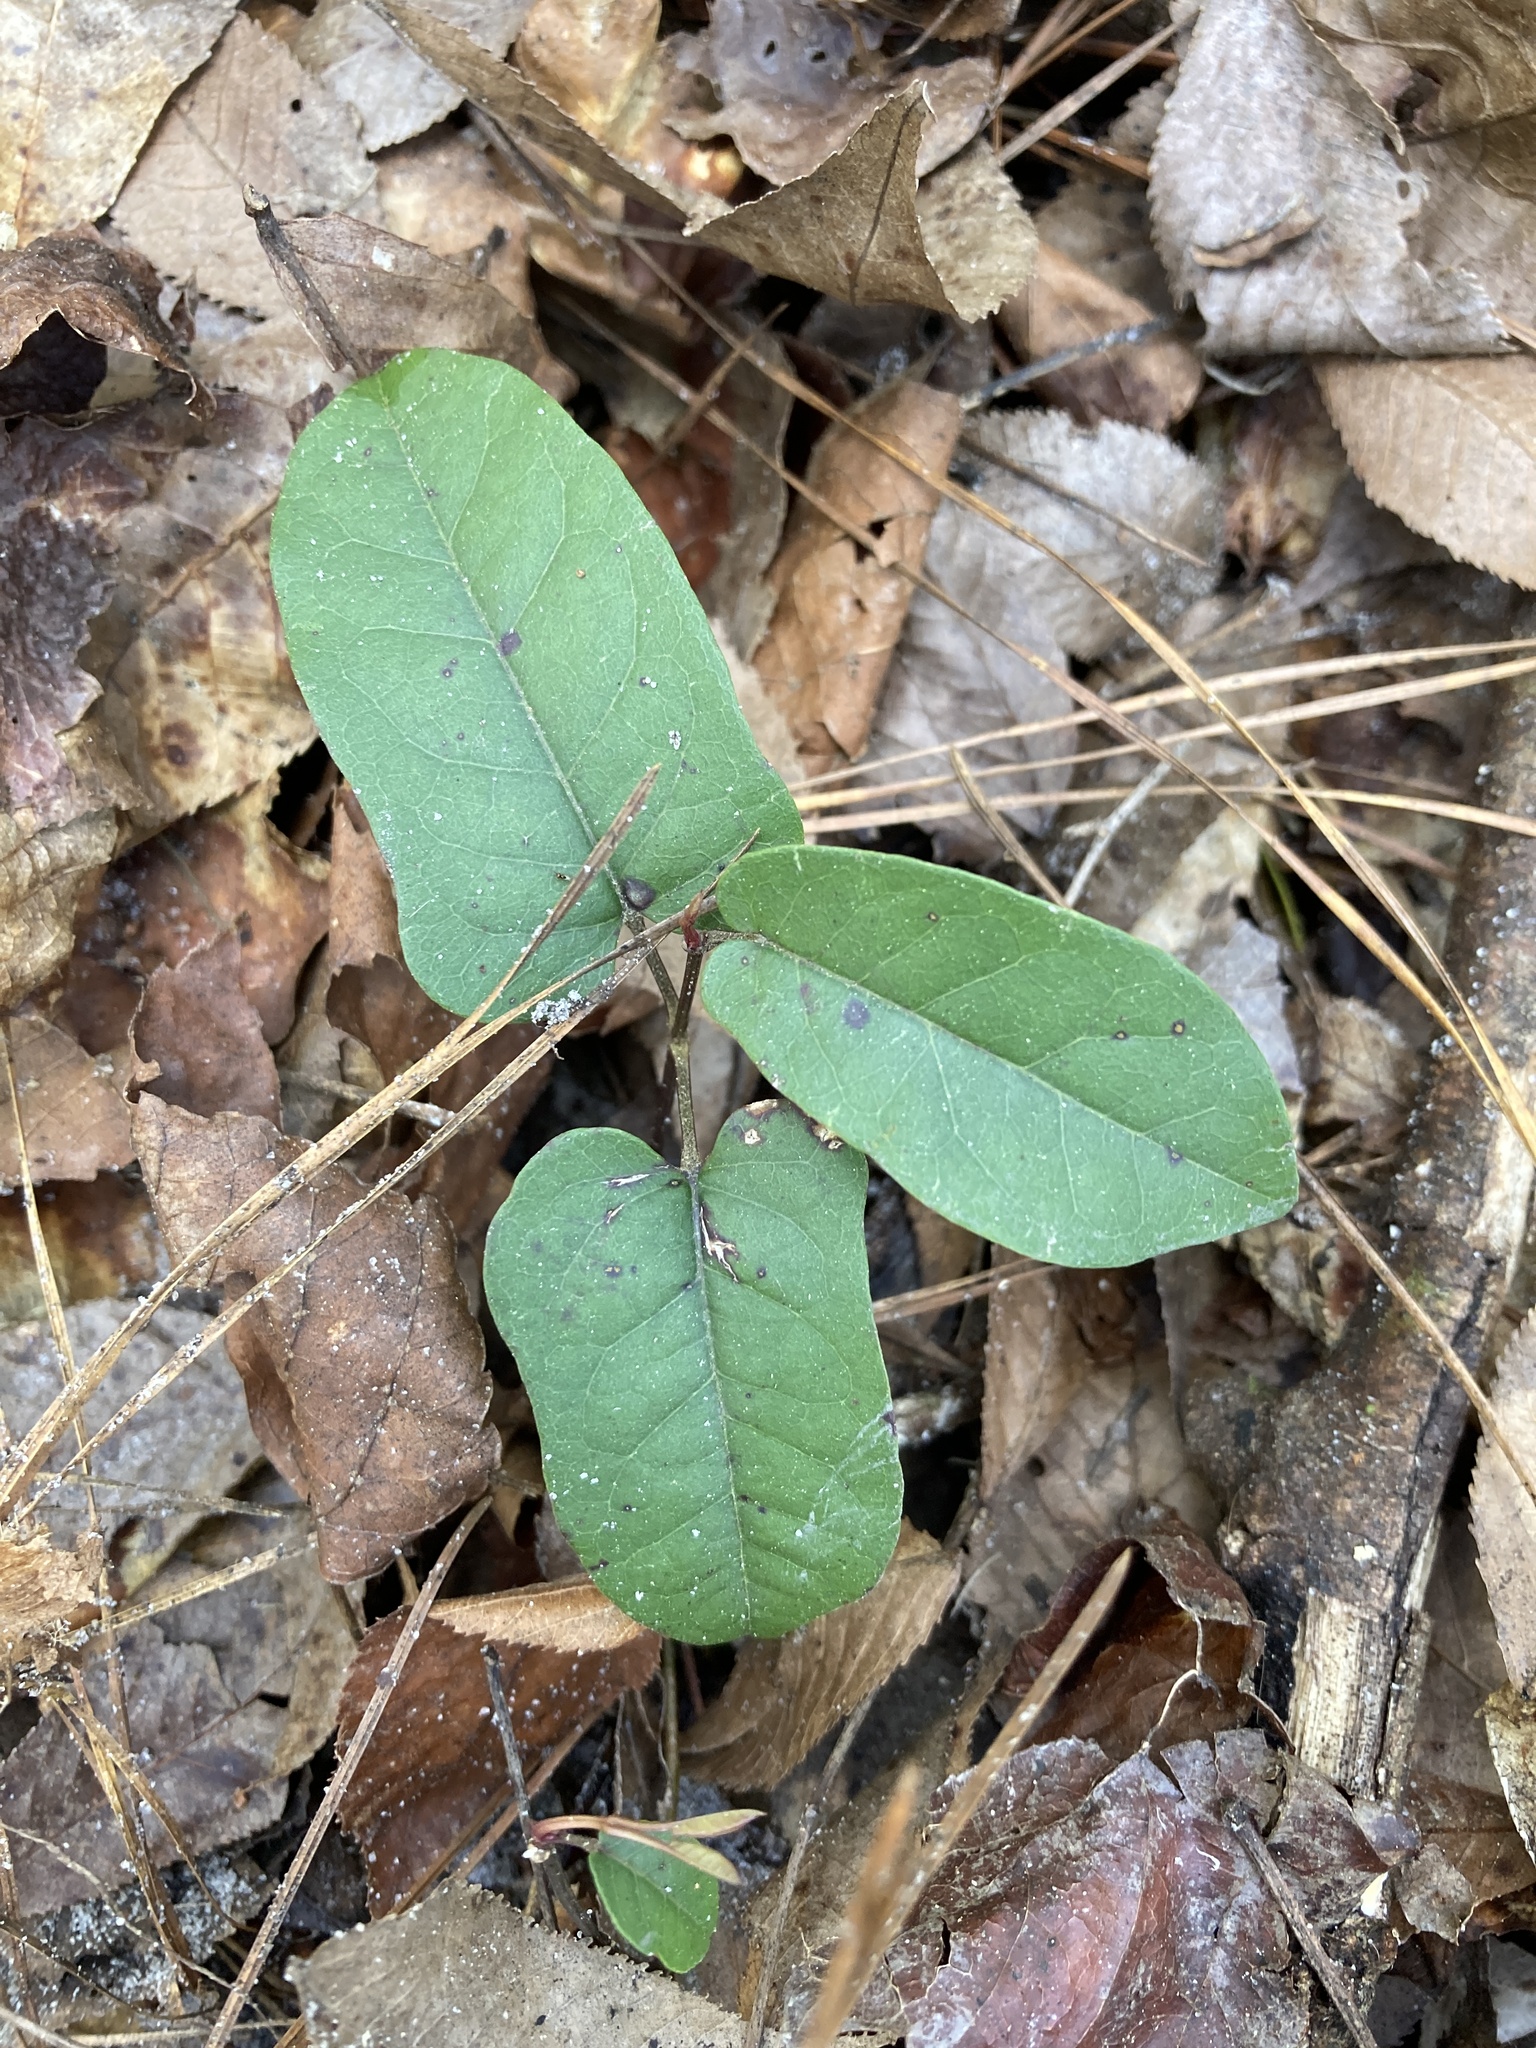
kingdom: Plantae
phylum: Tracheophyta
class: Magnoliopsida
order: Lamiales
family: Bignoniaceae
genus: Bignonia
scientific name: Bignonia capreolata
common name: Crossvine
